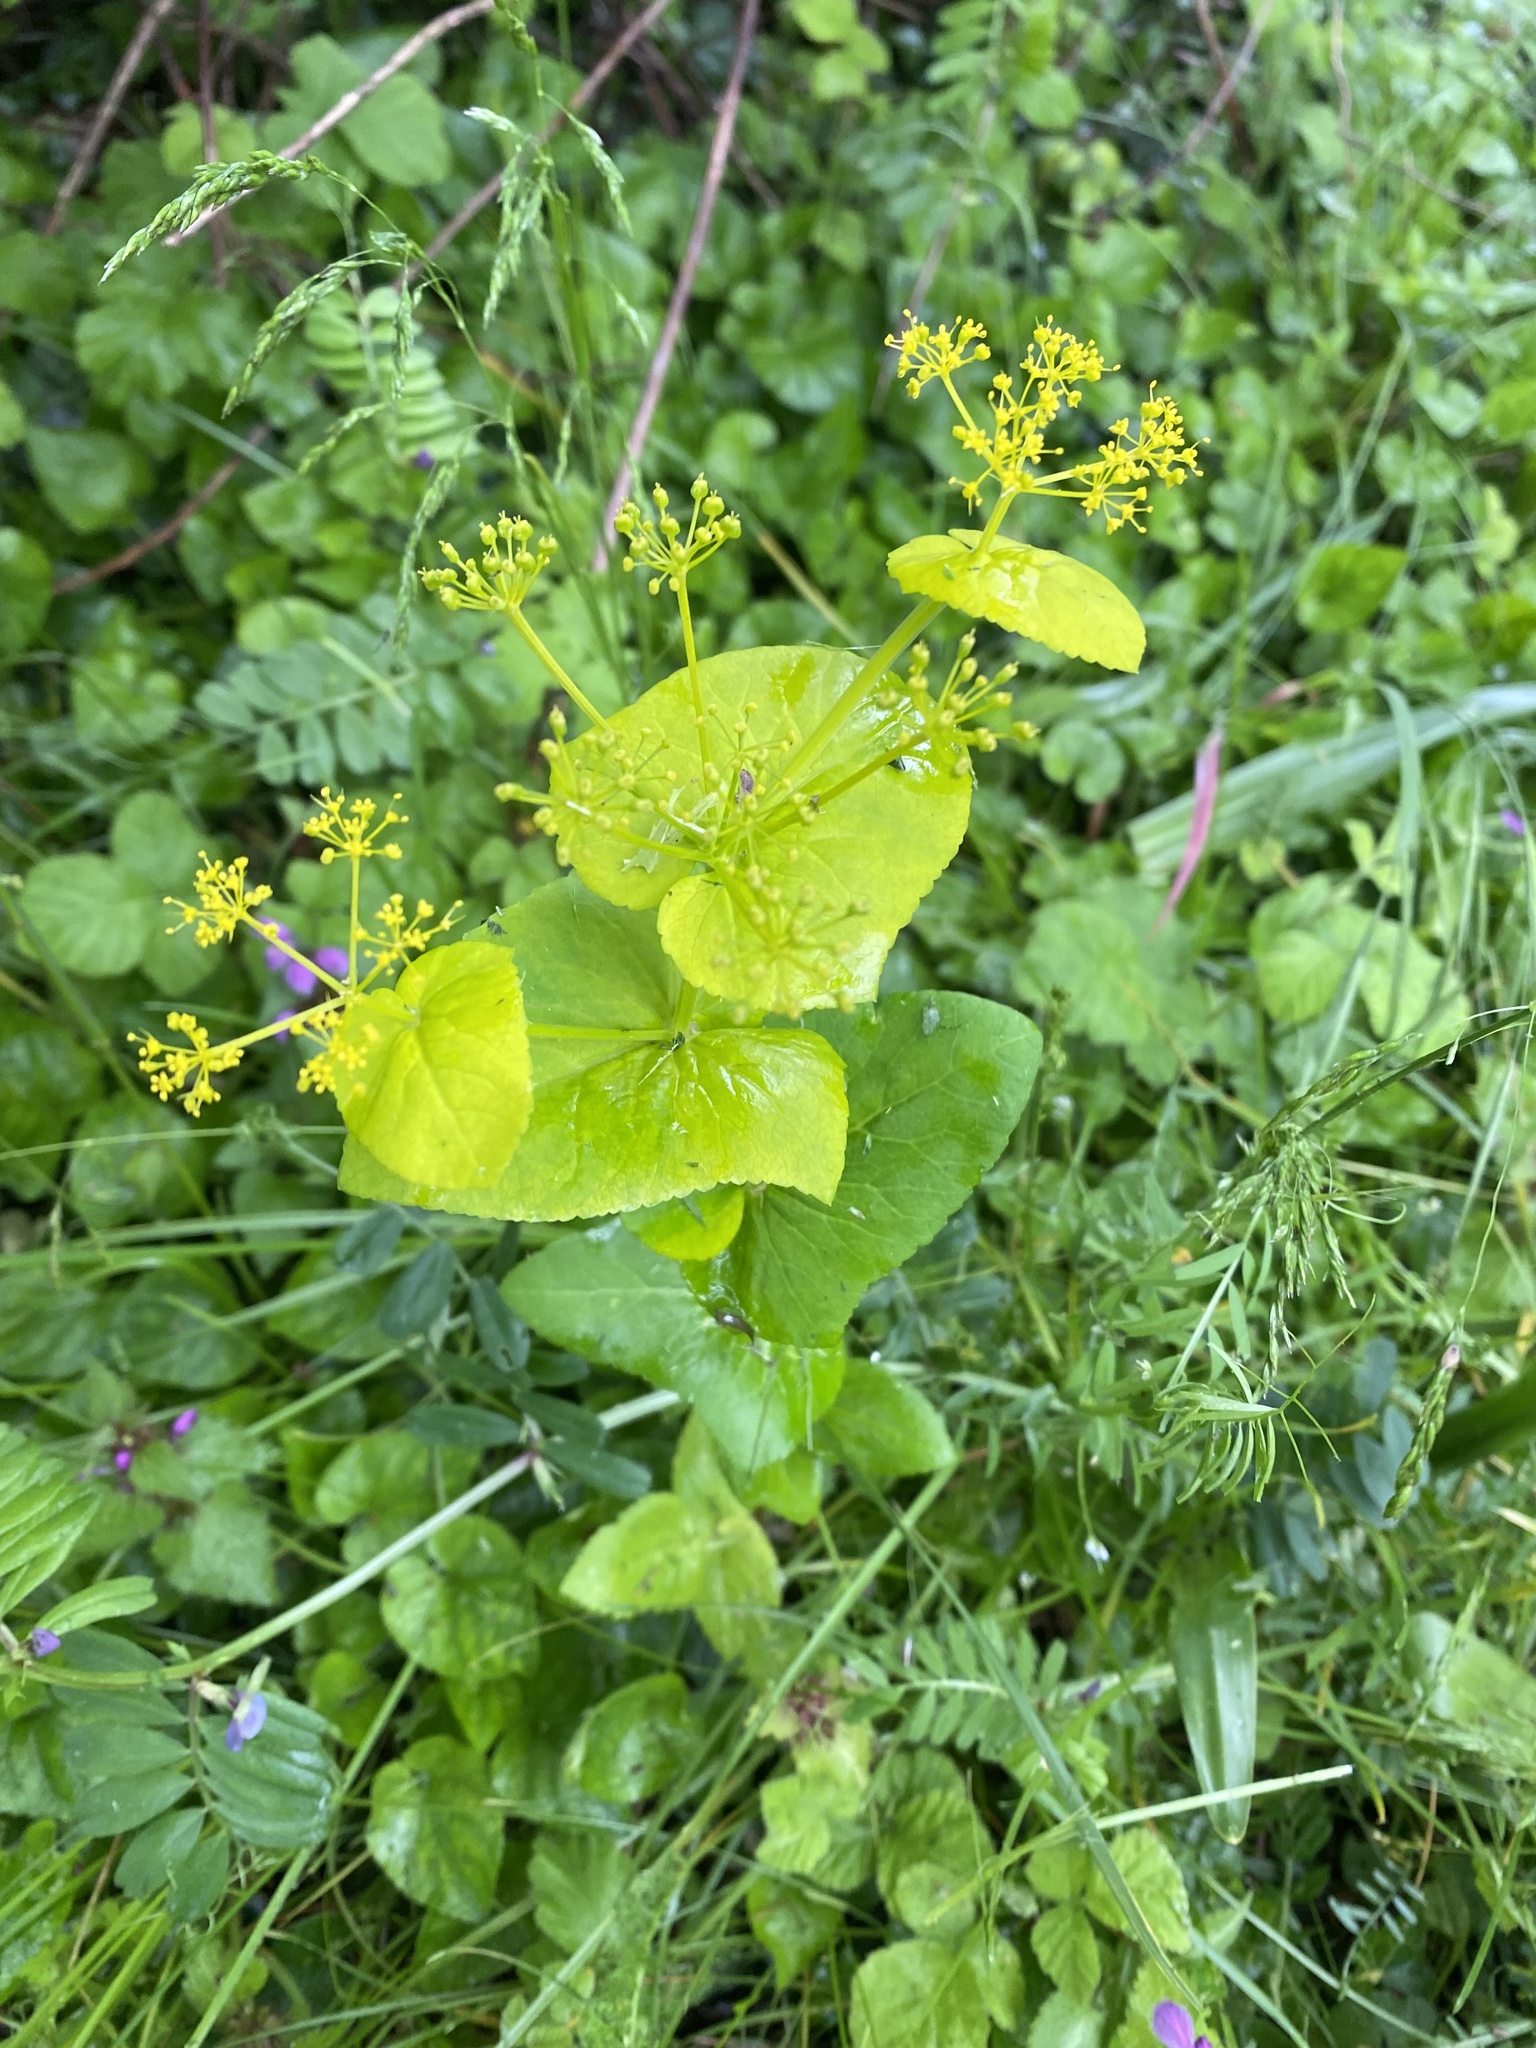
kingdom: Plantae
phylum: Tracheophyta
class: Magnoliopsida
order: Apiales
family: Apiaceae
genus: Smyrnium
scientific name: Smyrnium perfoliatum
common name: Perfoliate alexanders
